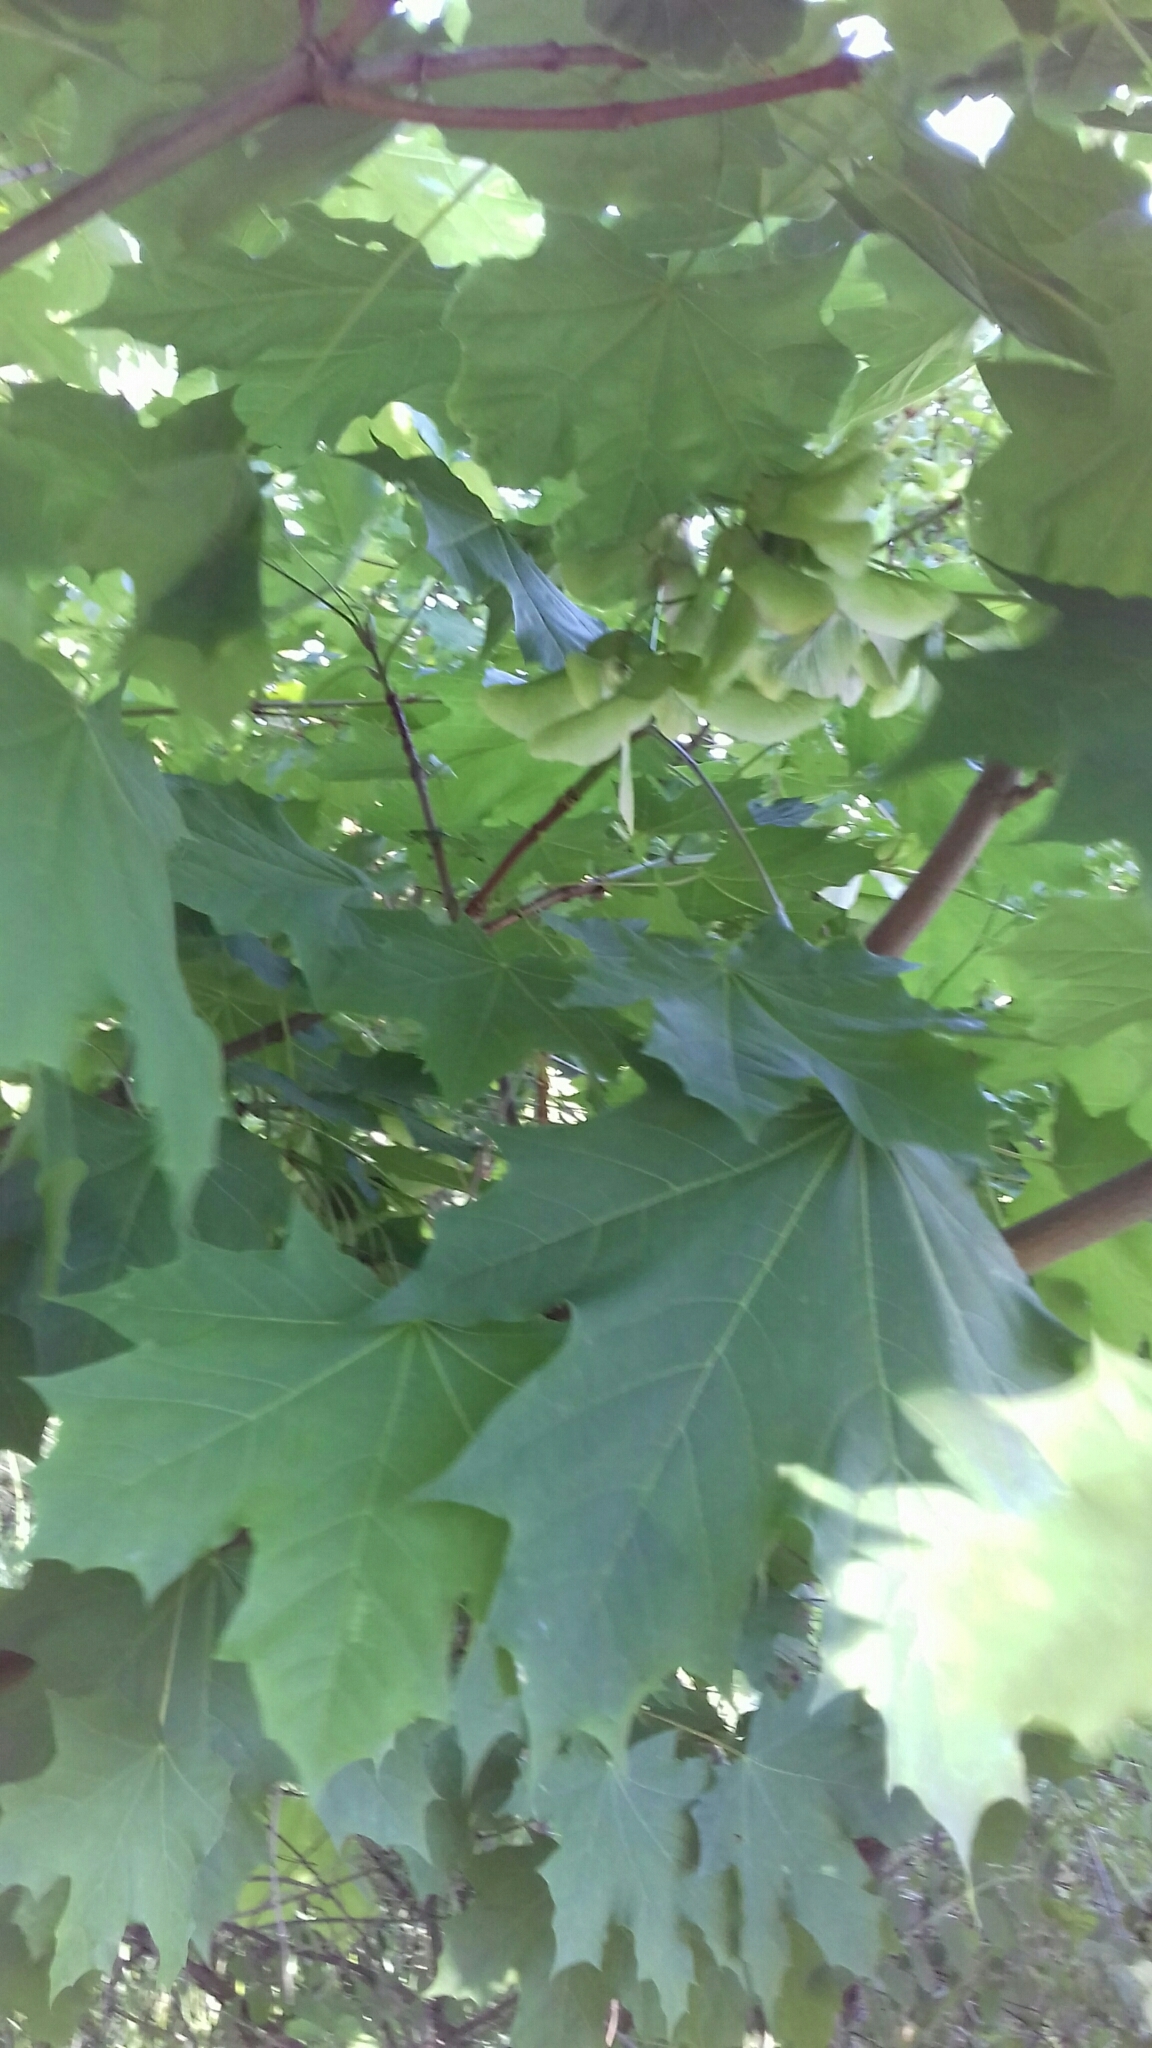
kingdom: Plantae
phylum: Tracheophyta
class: Magnoliopsida
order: Sapindales
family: Sapindaceae
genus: Acer
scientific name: Acer platanoides
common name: Norway maple
